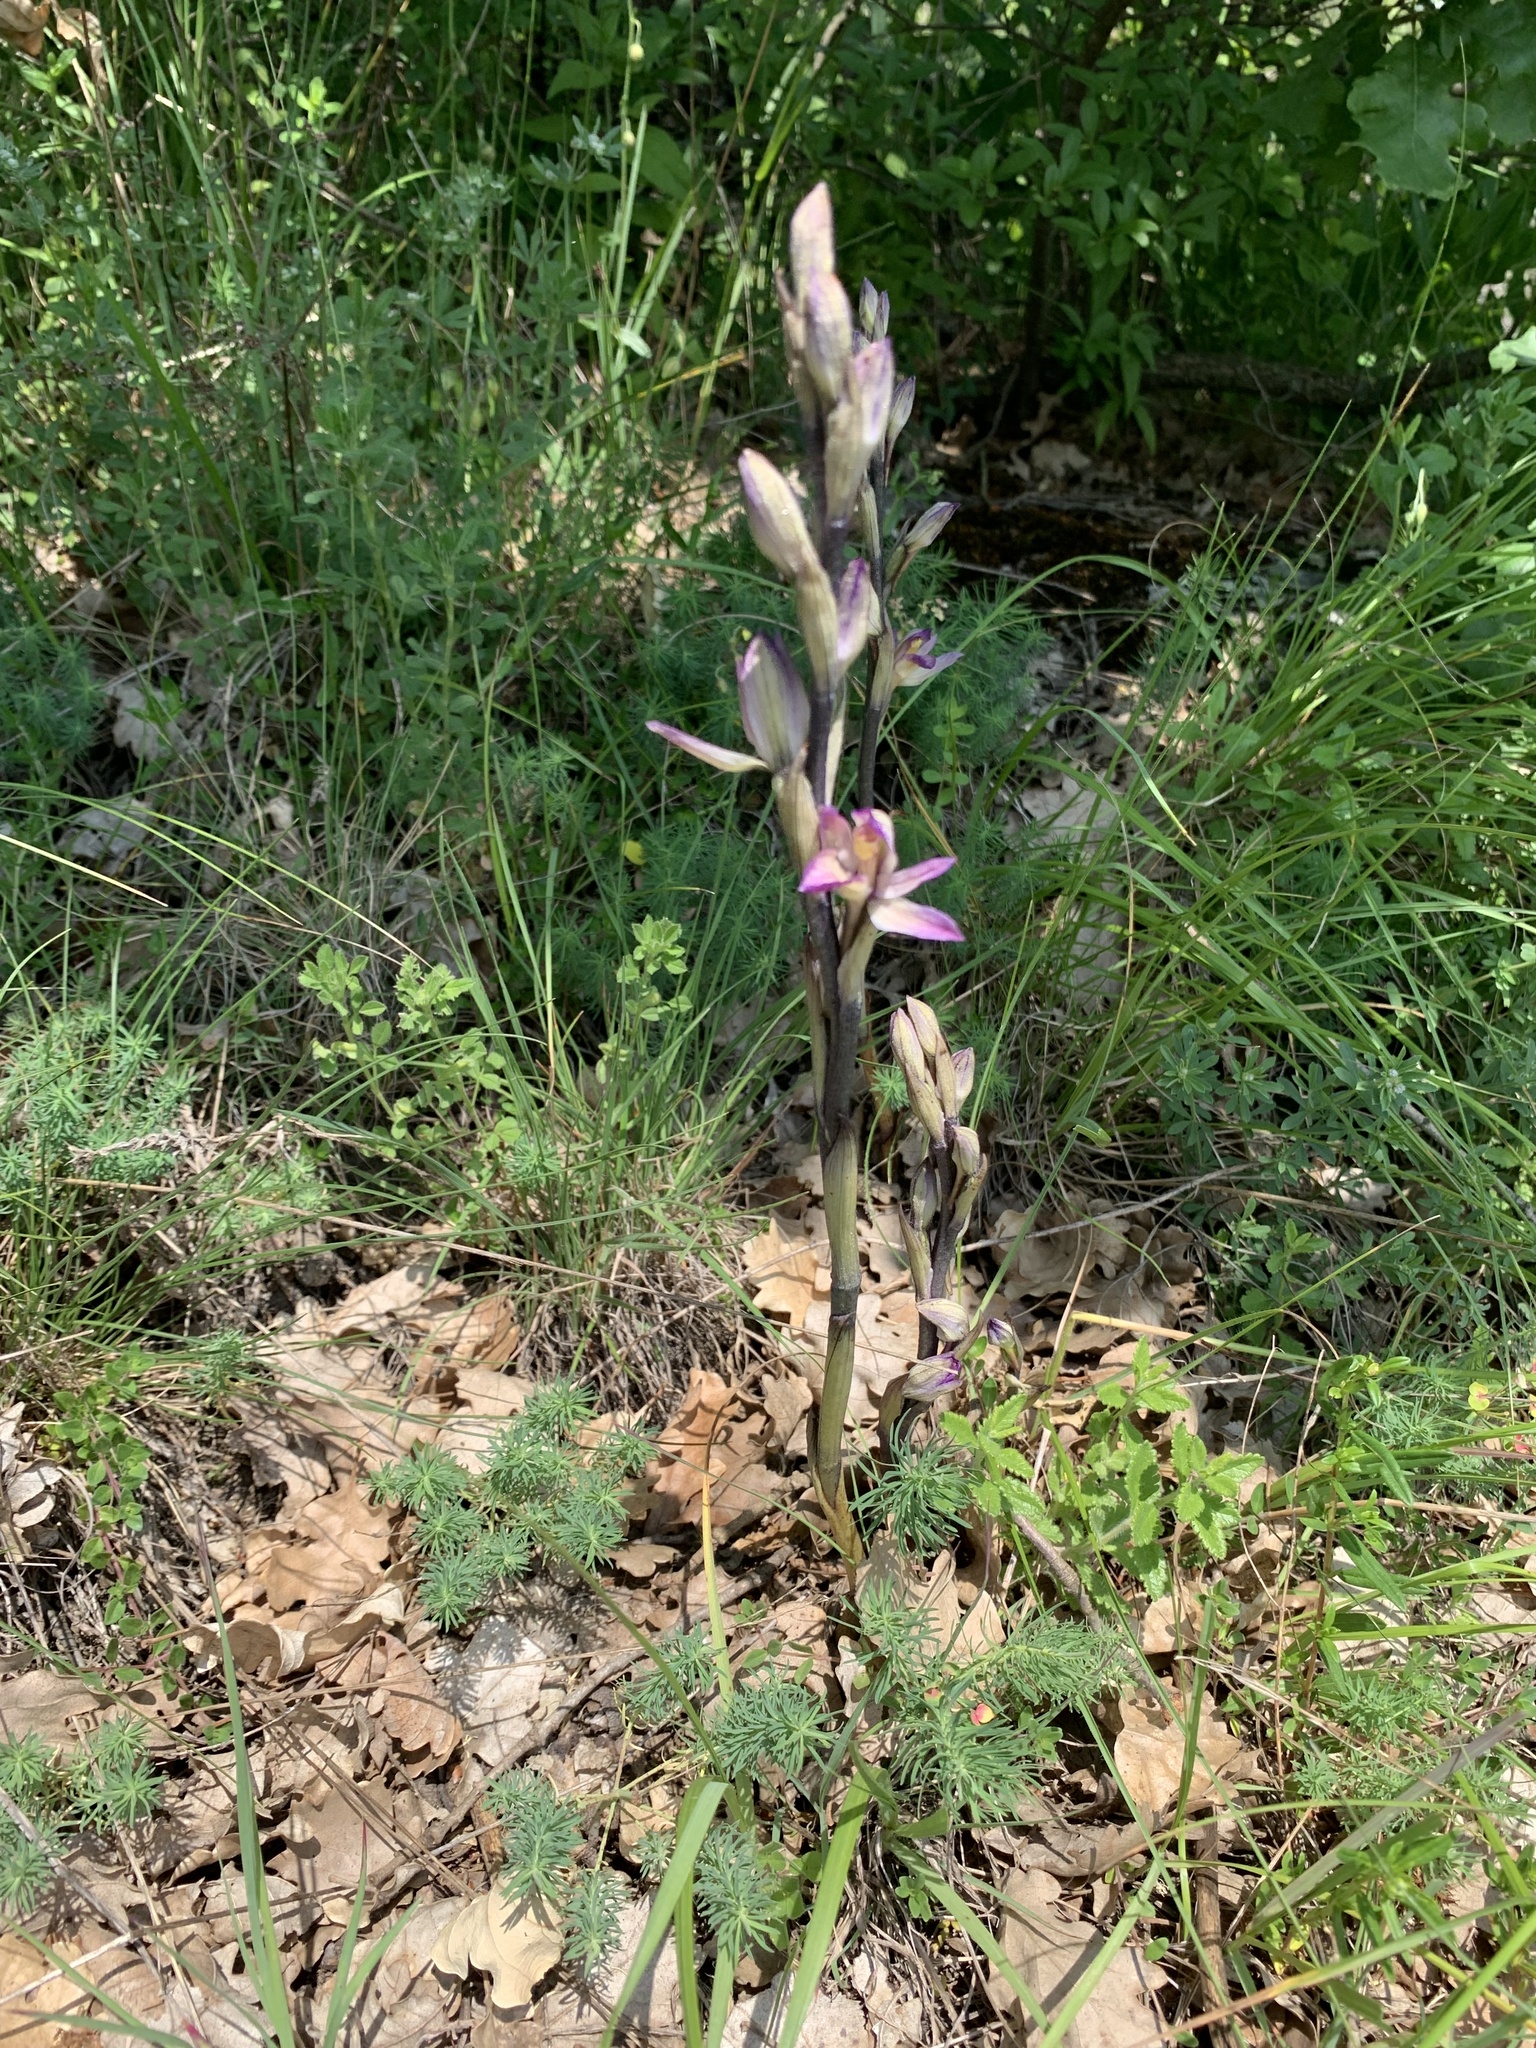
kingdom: Plantae
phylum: Tracheophyta
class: Liliopsida
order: Asparagales
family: Orchidaceae
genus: Limodorum
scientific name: Limodorum abortivum
